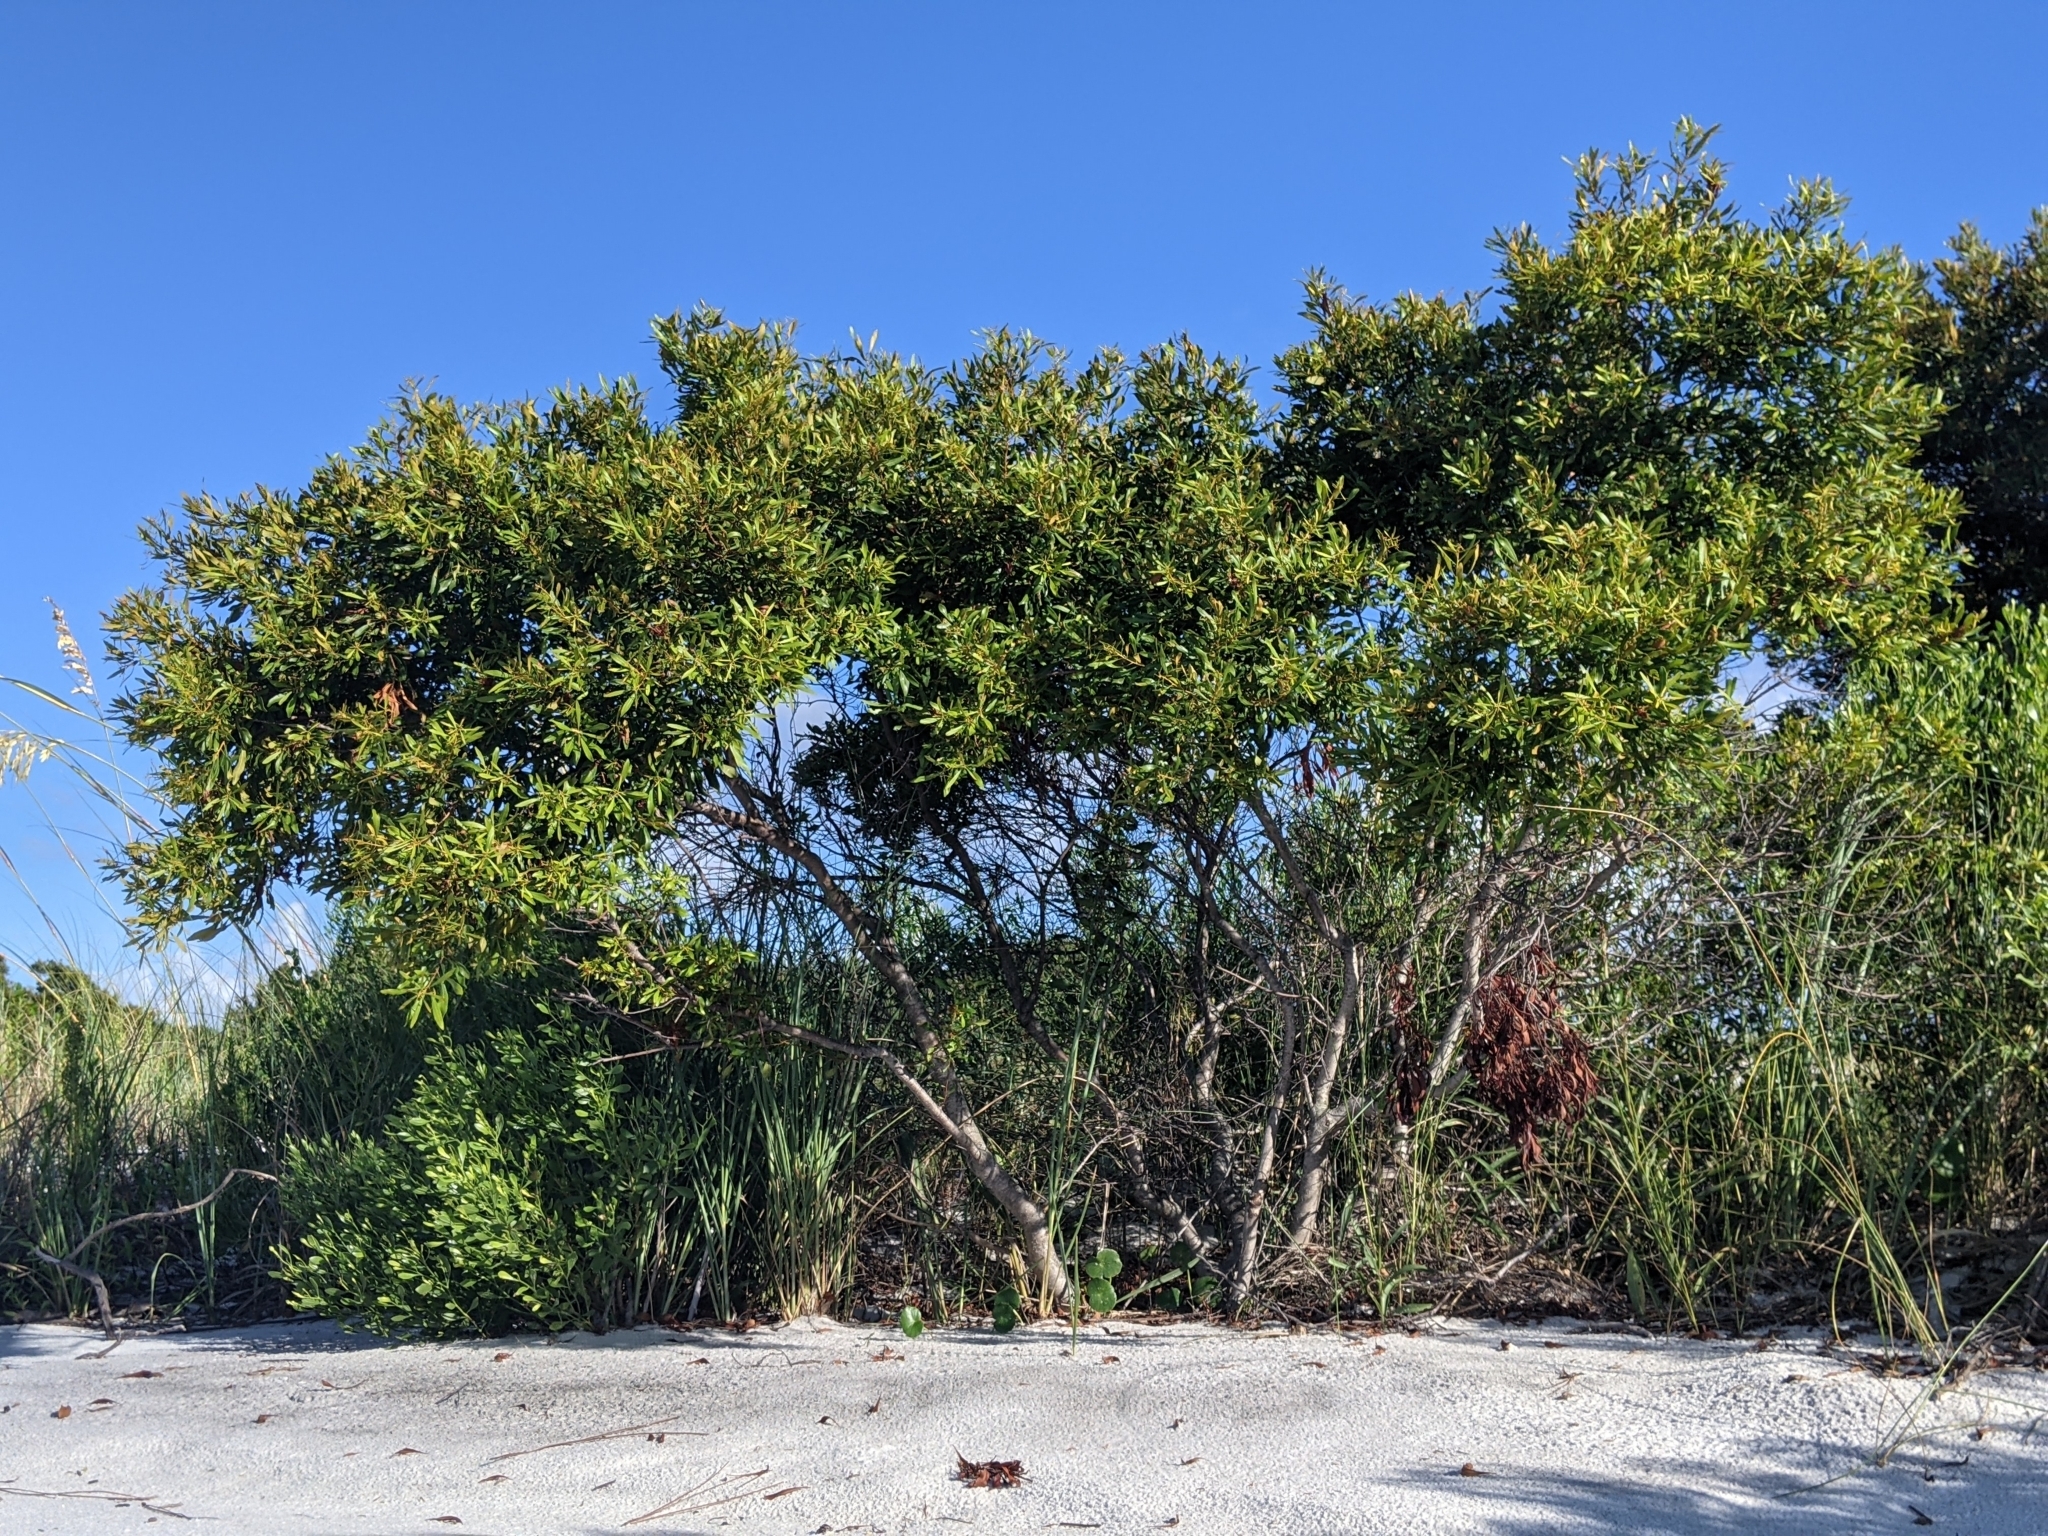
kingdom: Plantae
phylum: Tracheophyta
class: Magnoliopsida
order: Fagales
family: Myricaceae
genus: Morella
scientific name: Morella cerifera
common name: Wax myrtle
